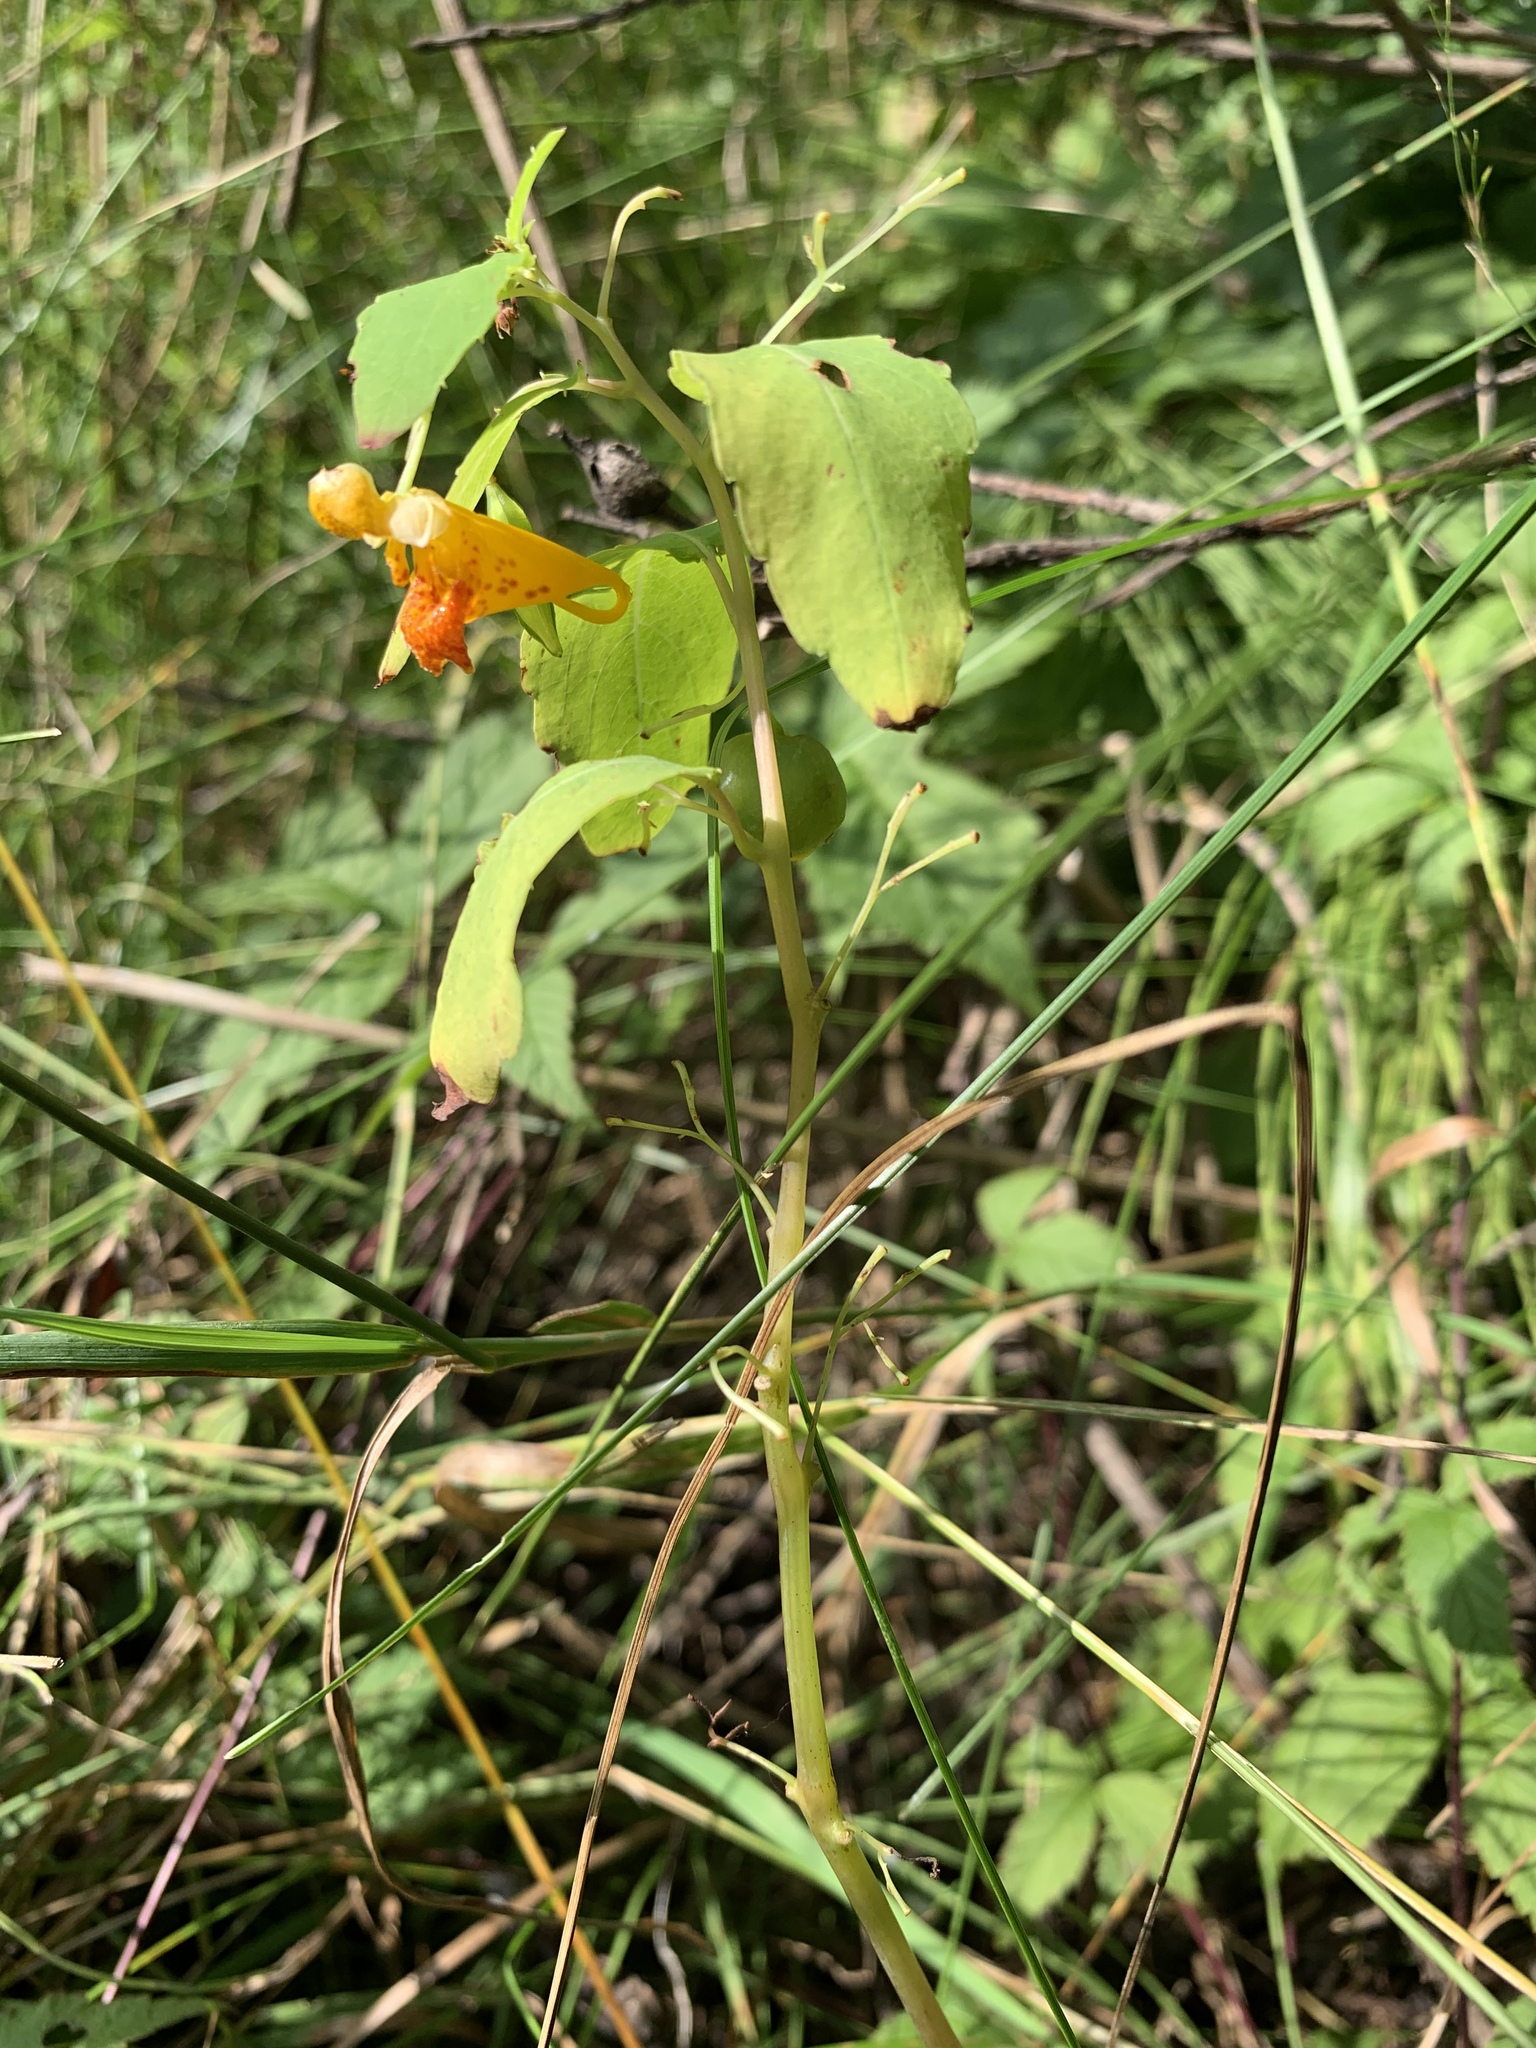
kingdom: Plantae
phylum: Tracheophyta
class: Magnoliopsida
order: Ericales
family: Balsaminaceae
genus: Impatiens
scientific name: Impatiens capensis
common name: Orange balsam
